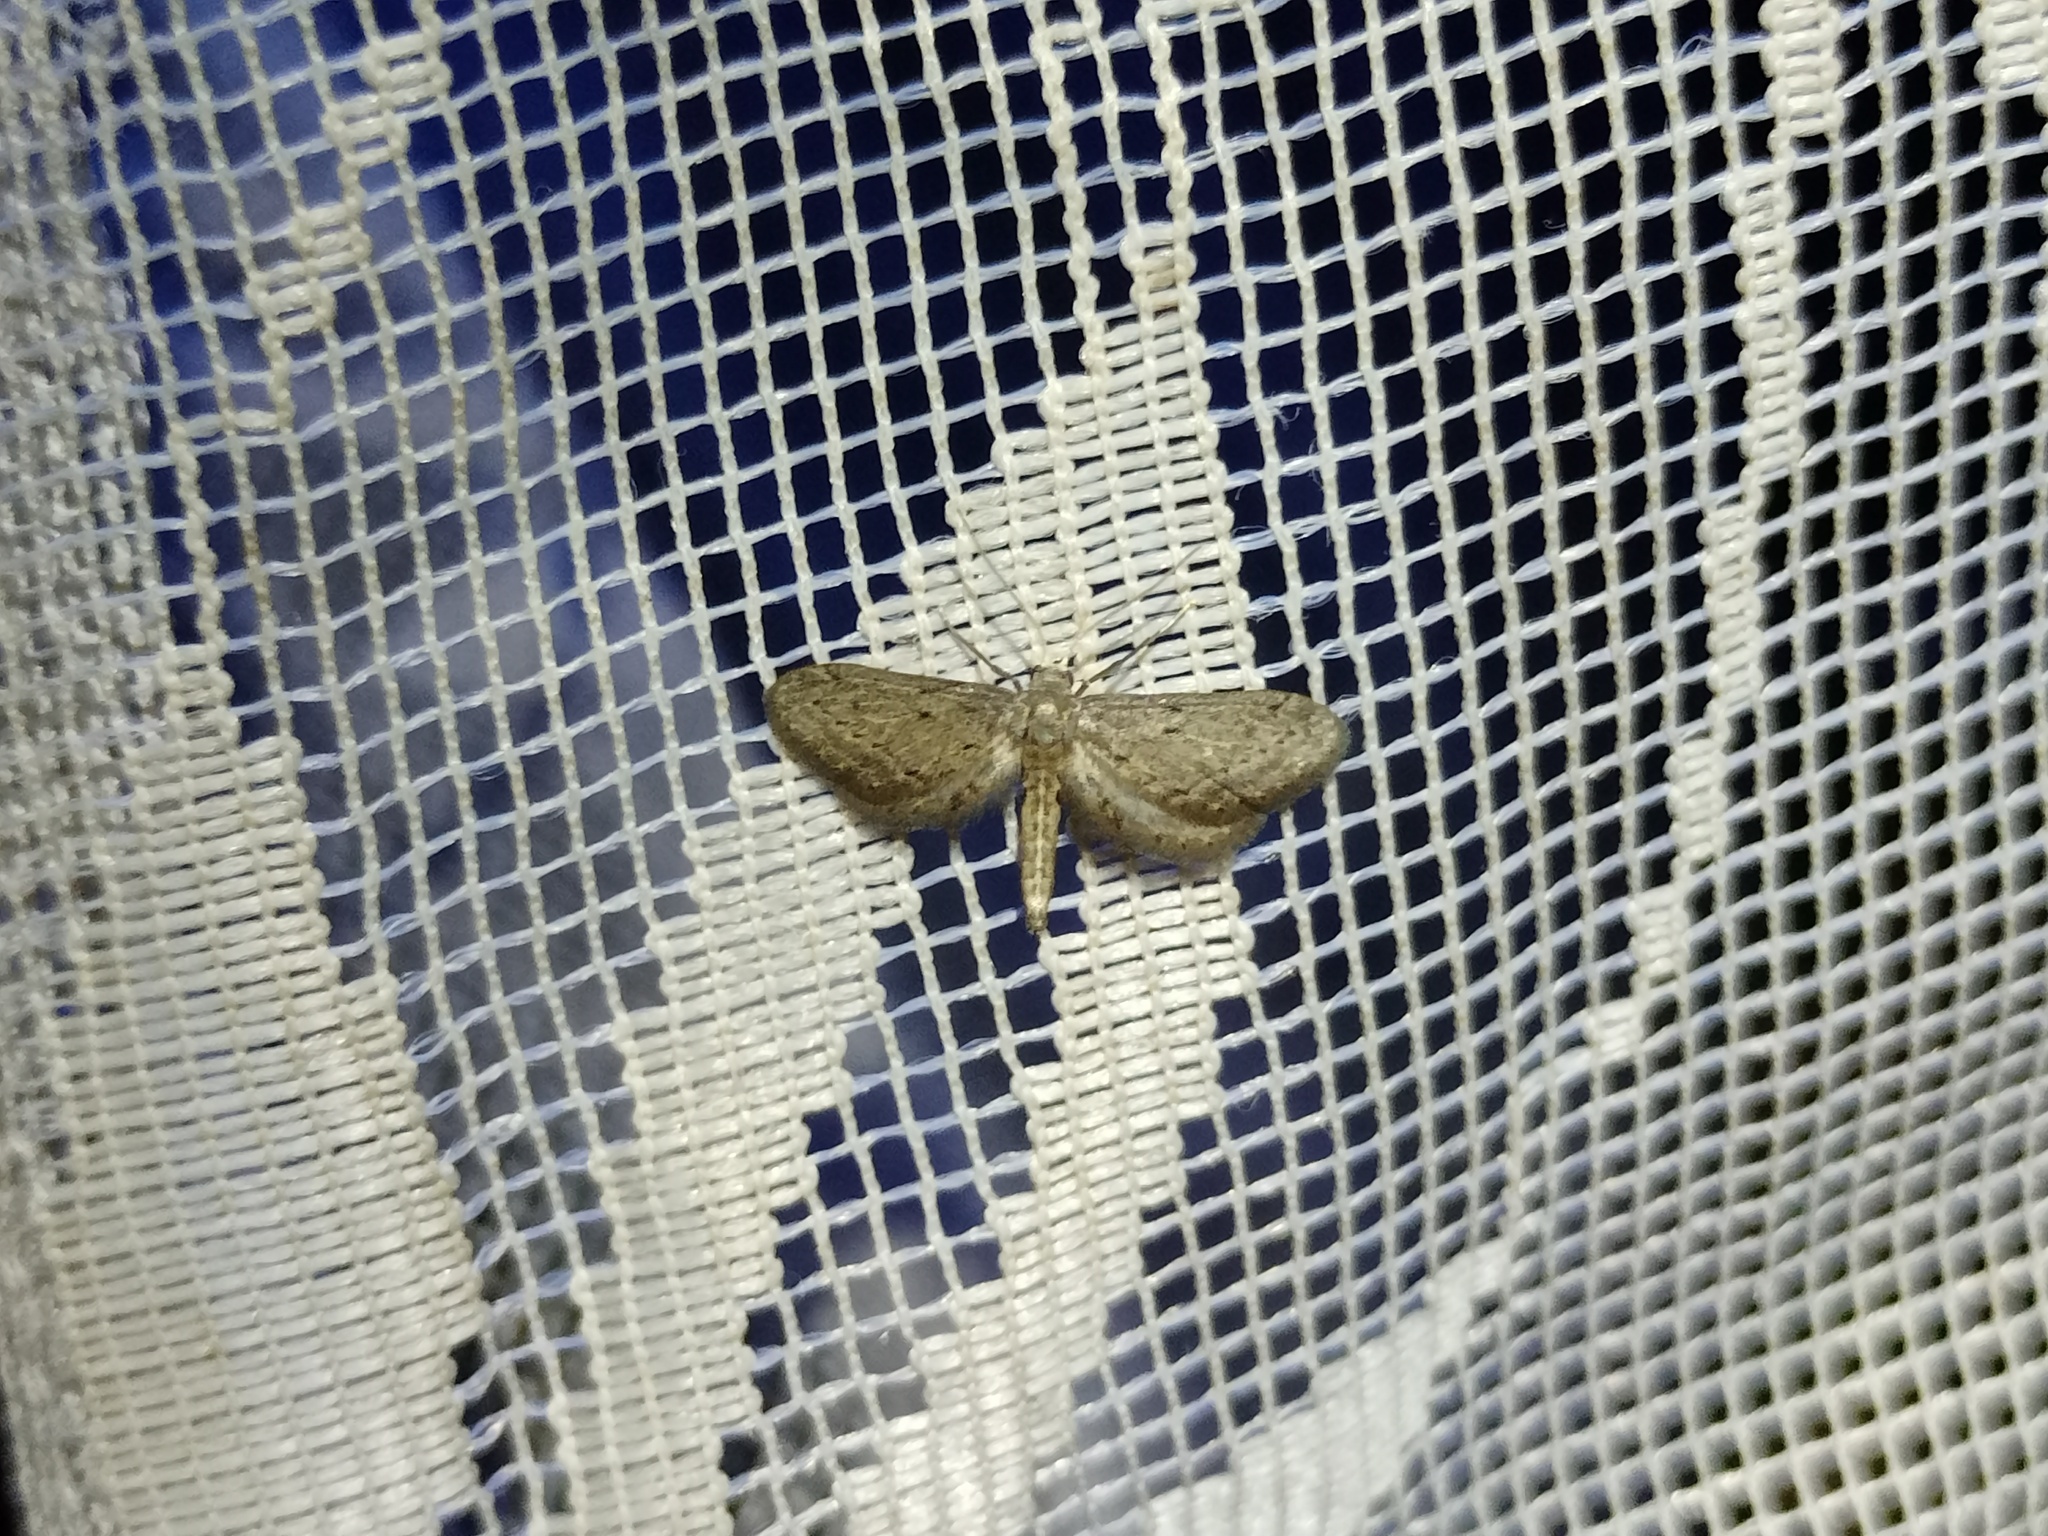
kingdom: Animalia
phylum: Arthropoda
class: Insecta
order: Lepidoptera
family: Geometridae
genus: Idaea
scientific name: Idaea volloni
